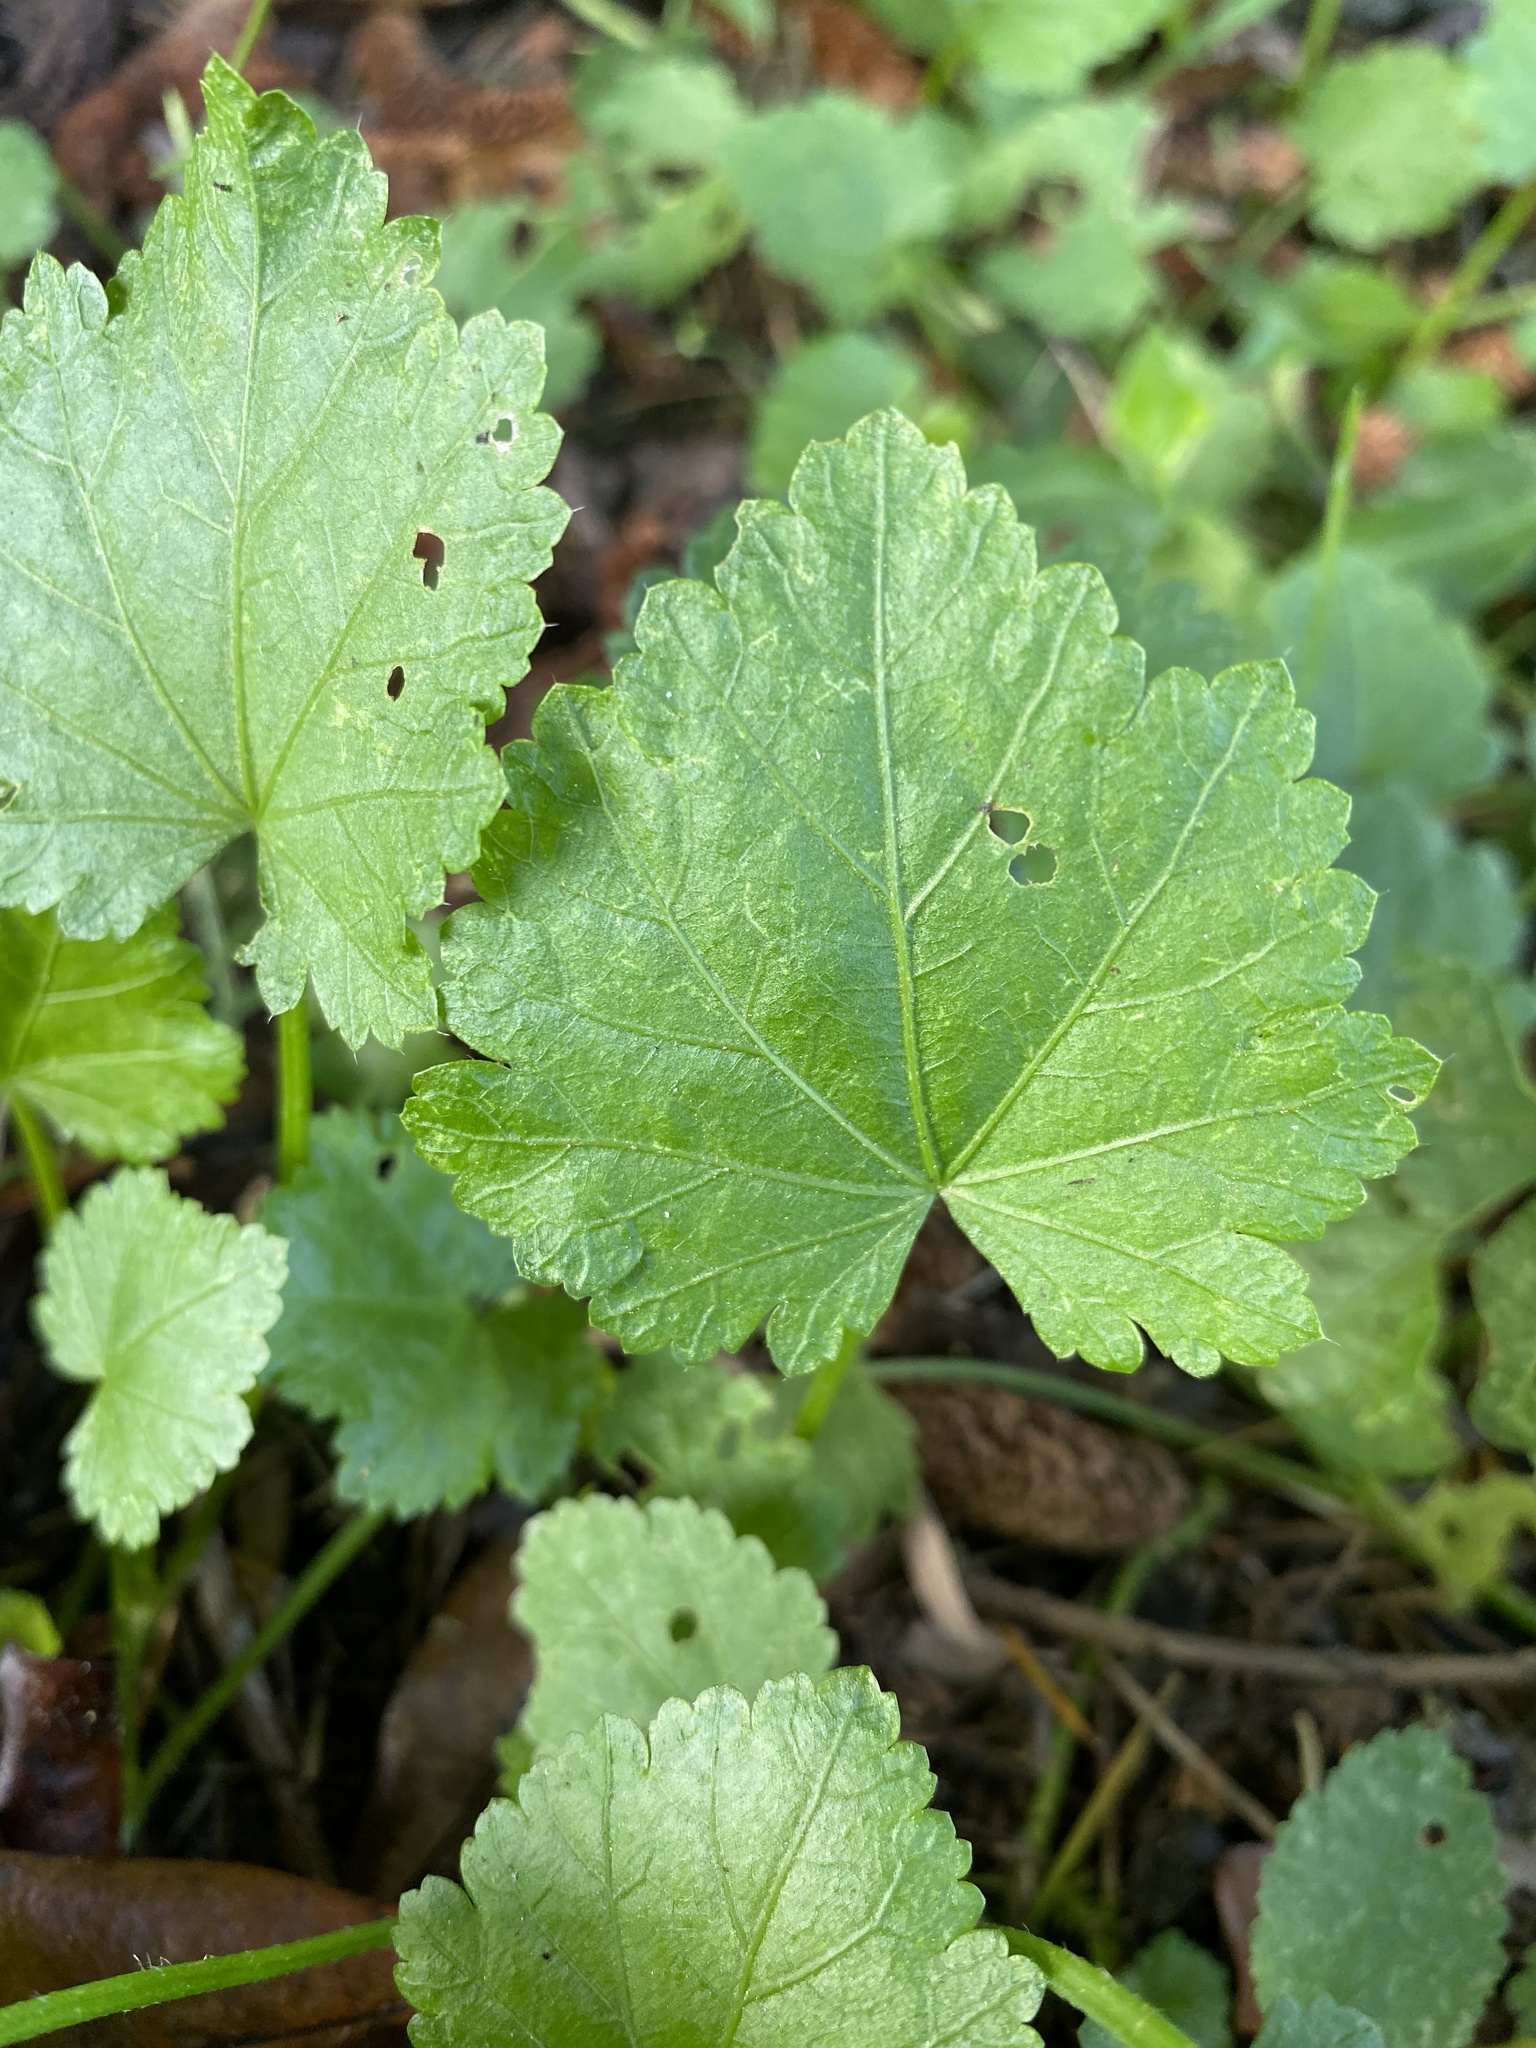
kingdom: Plantae
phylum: Tracheophyta
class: Magnoliopsida
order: Malvales
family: Malvaceae
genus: Modiola
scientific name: Modiola caroliniana
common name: Carolina bristlemallow
